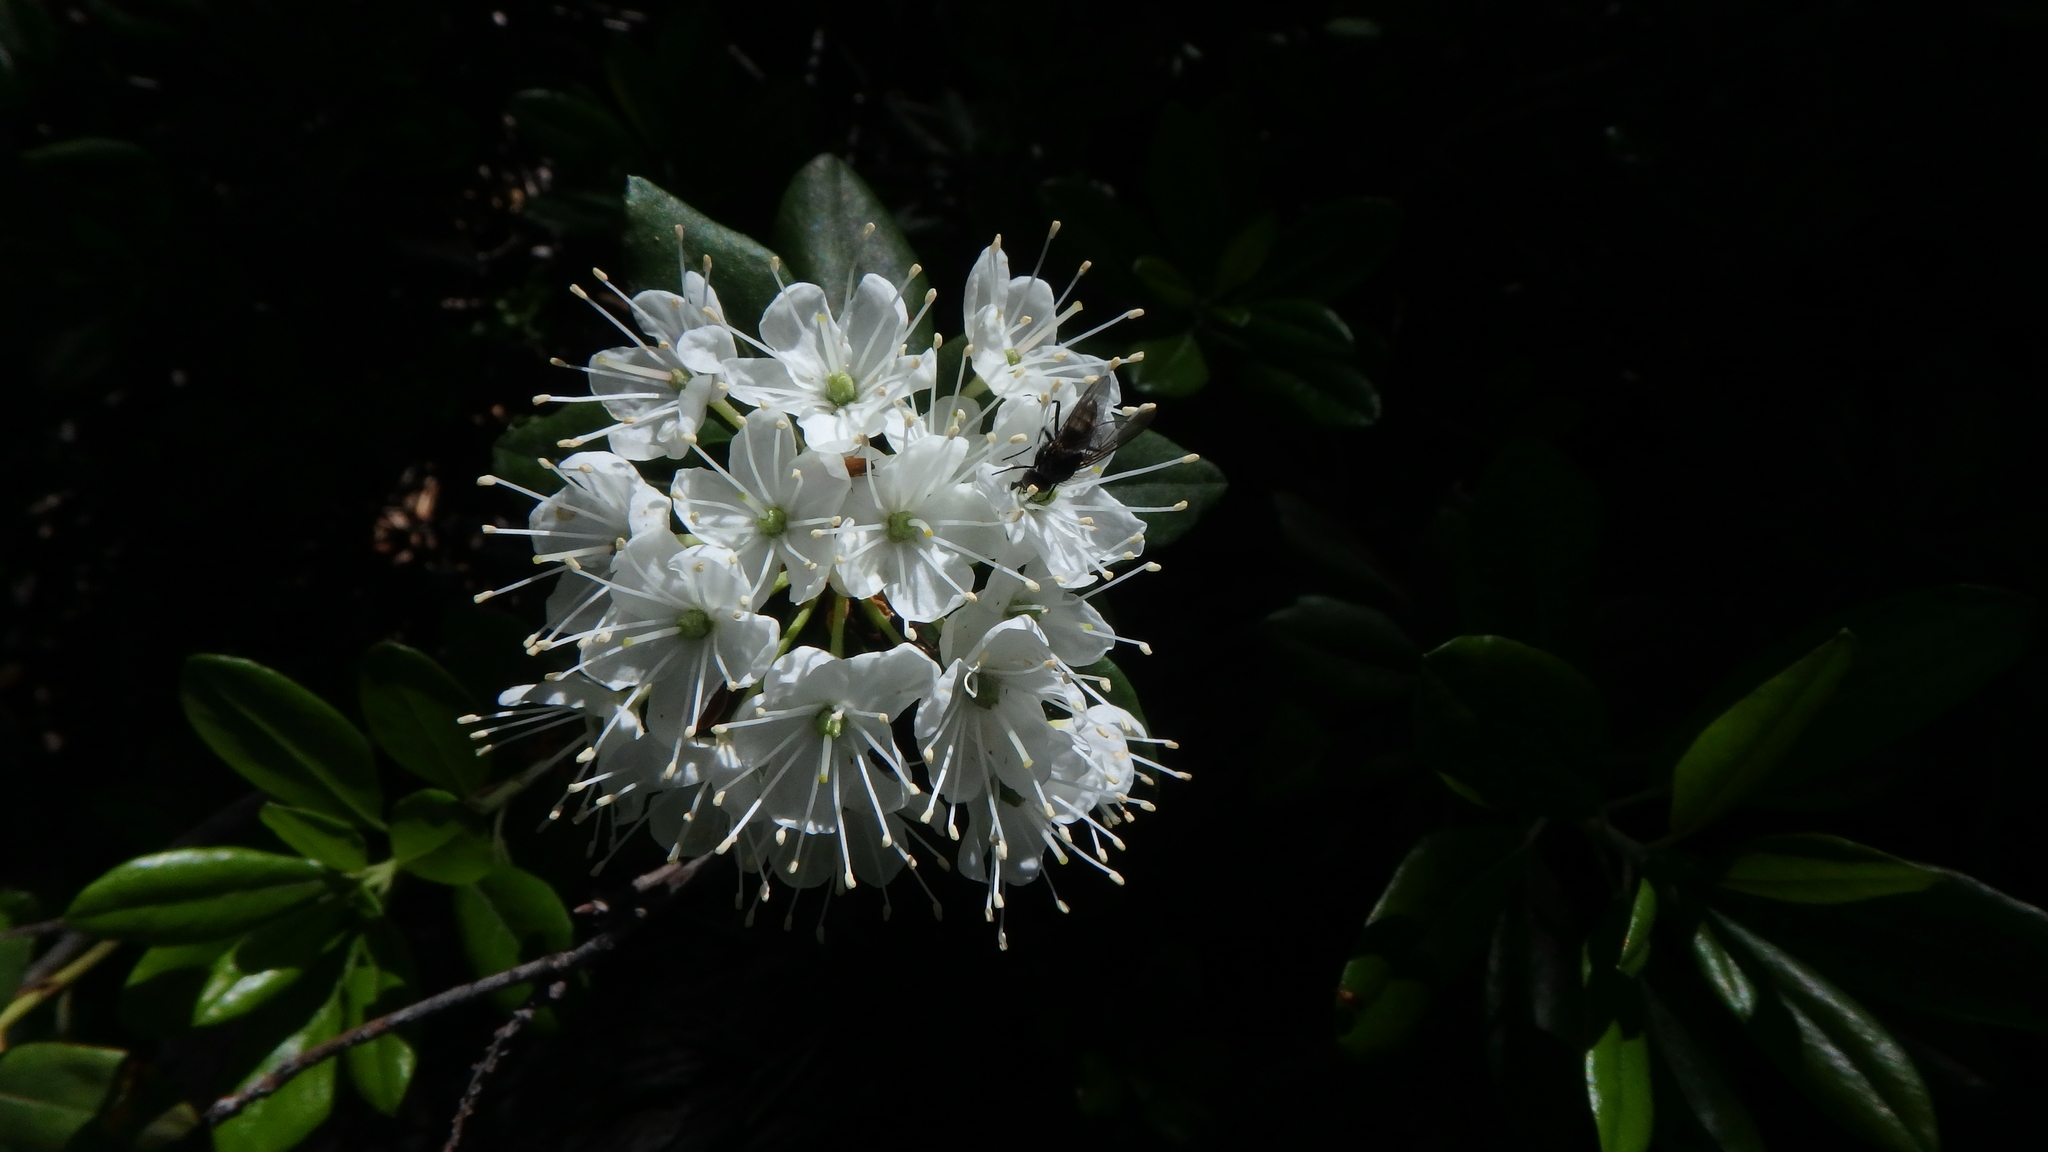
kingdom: Plantae
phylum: Tracheophyta
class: Magnoliopsida
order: Ericales
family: Ericaceae
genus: Rhododendron
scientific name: Rhododendron columbianum
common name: Western labrador tea
